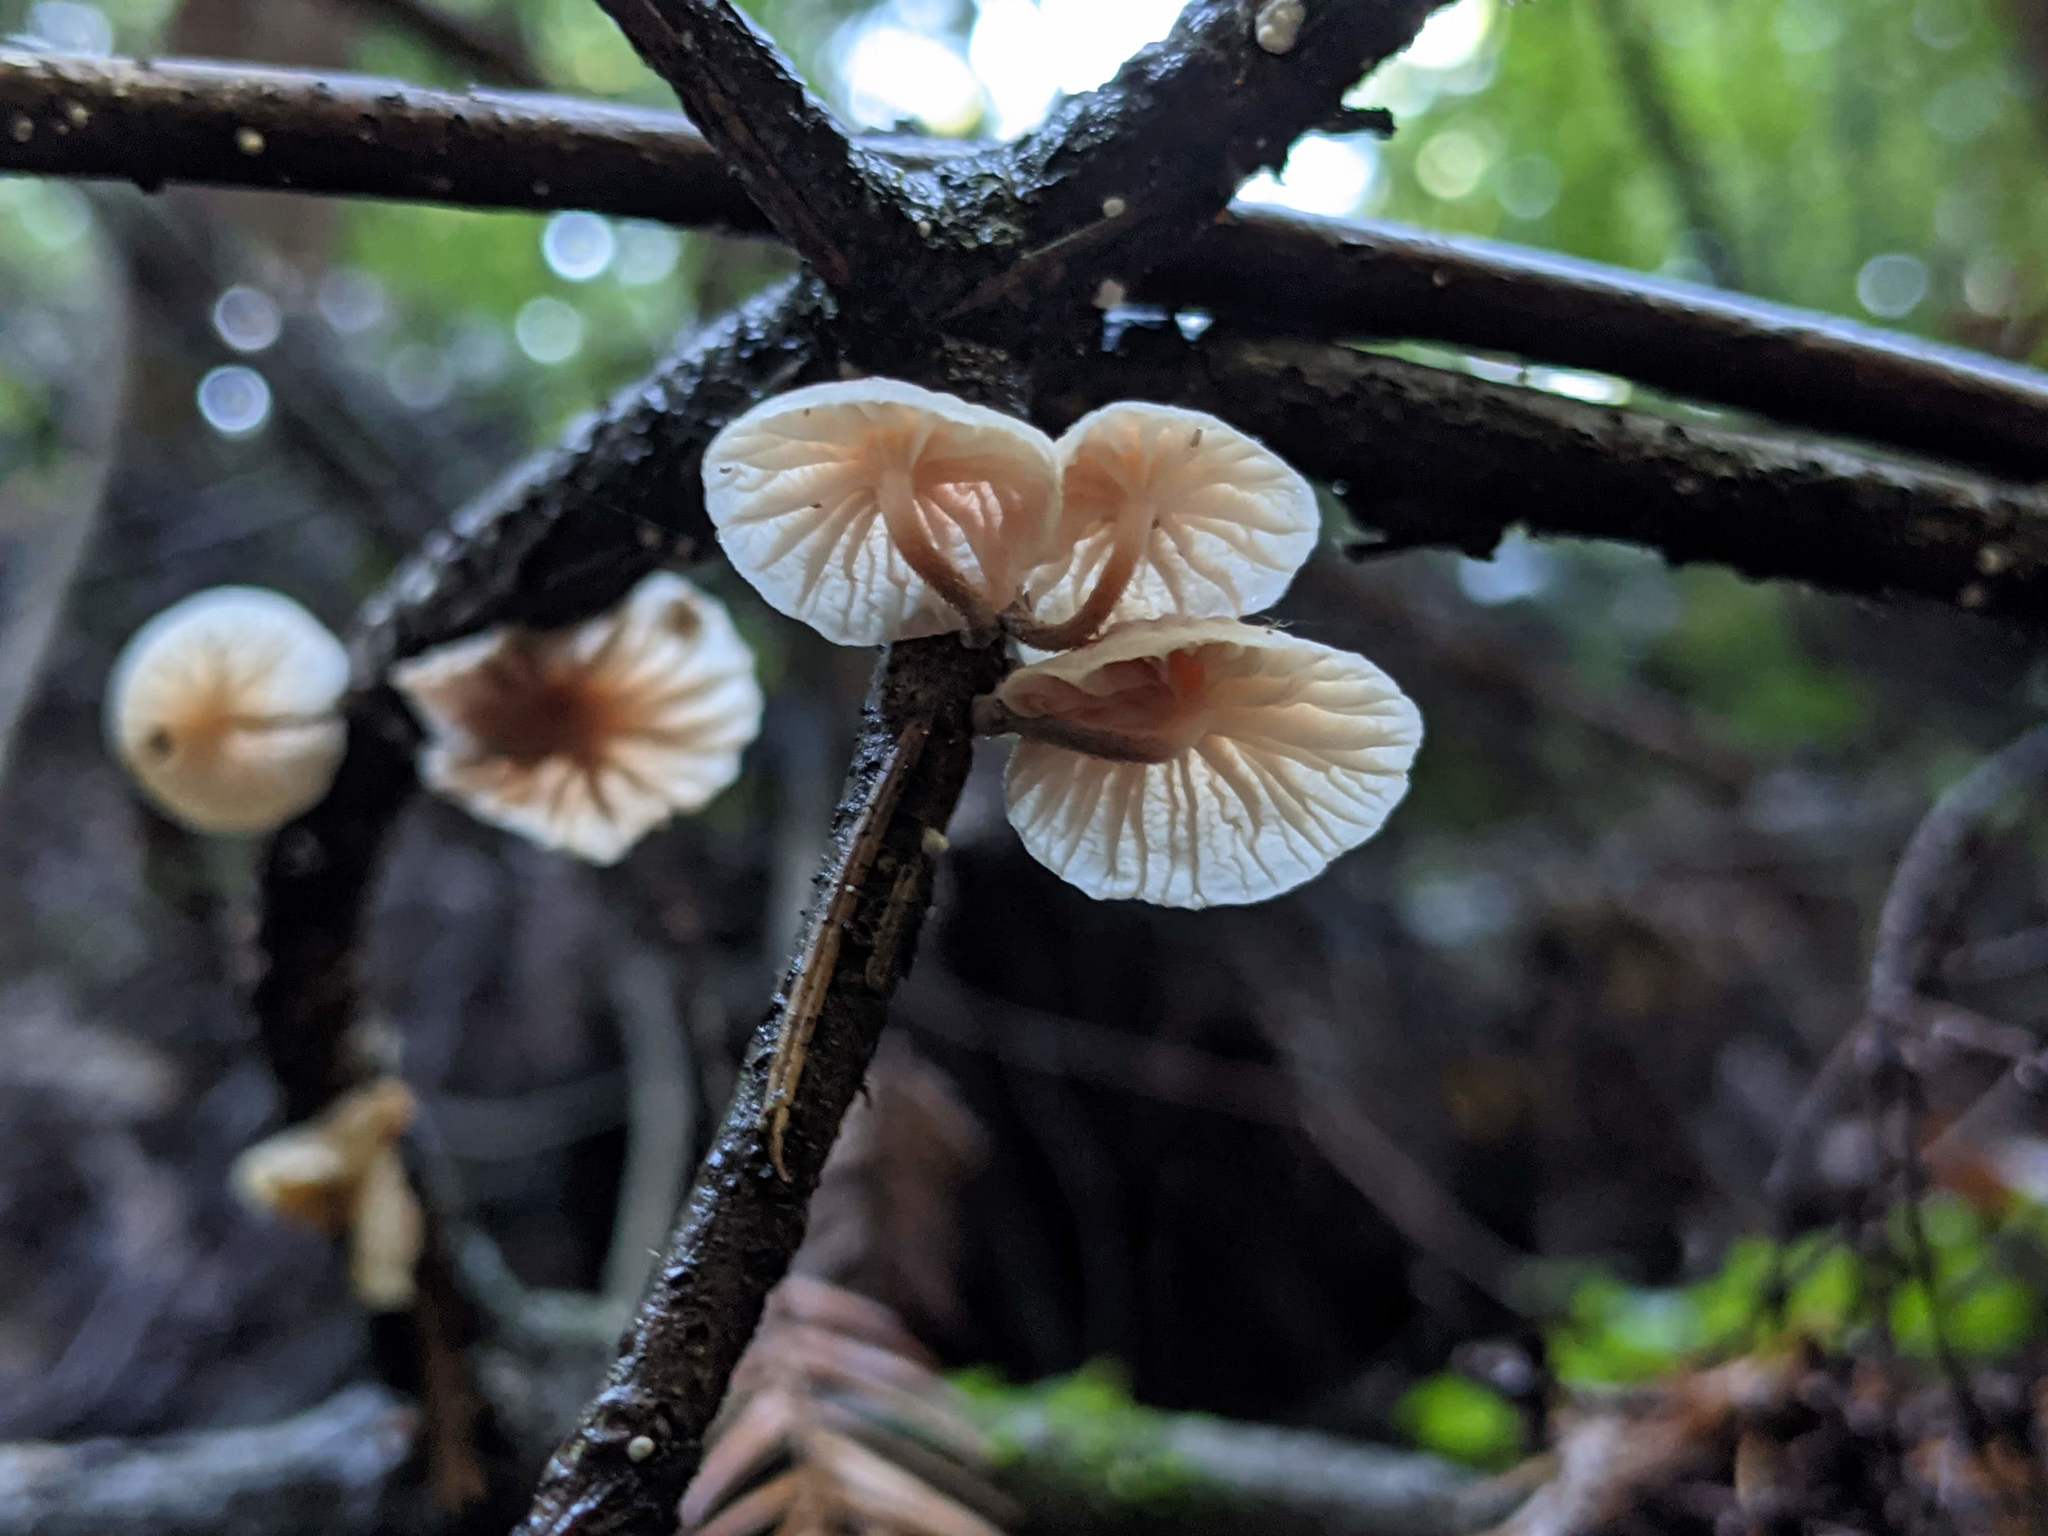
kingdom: Fungi
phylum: Basidiomycota
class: Agaricomycetes
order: Agaricales
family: Omphalotaceae
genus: Marasmiellus
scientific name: Marasmiellus candidus
